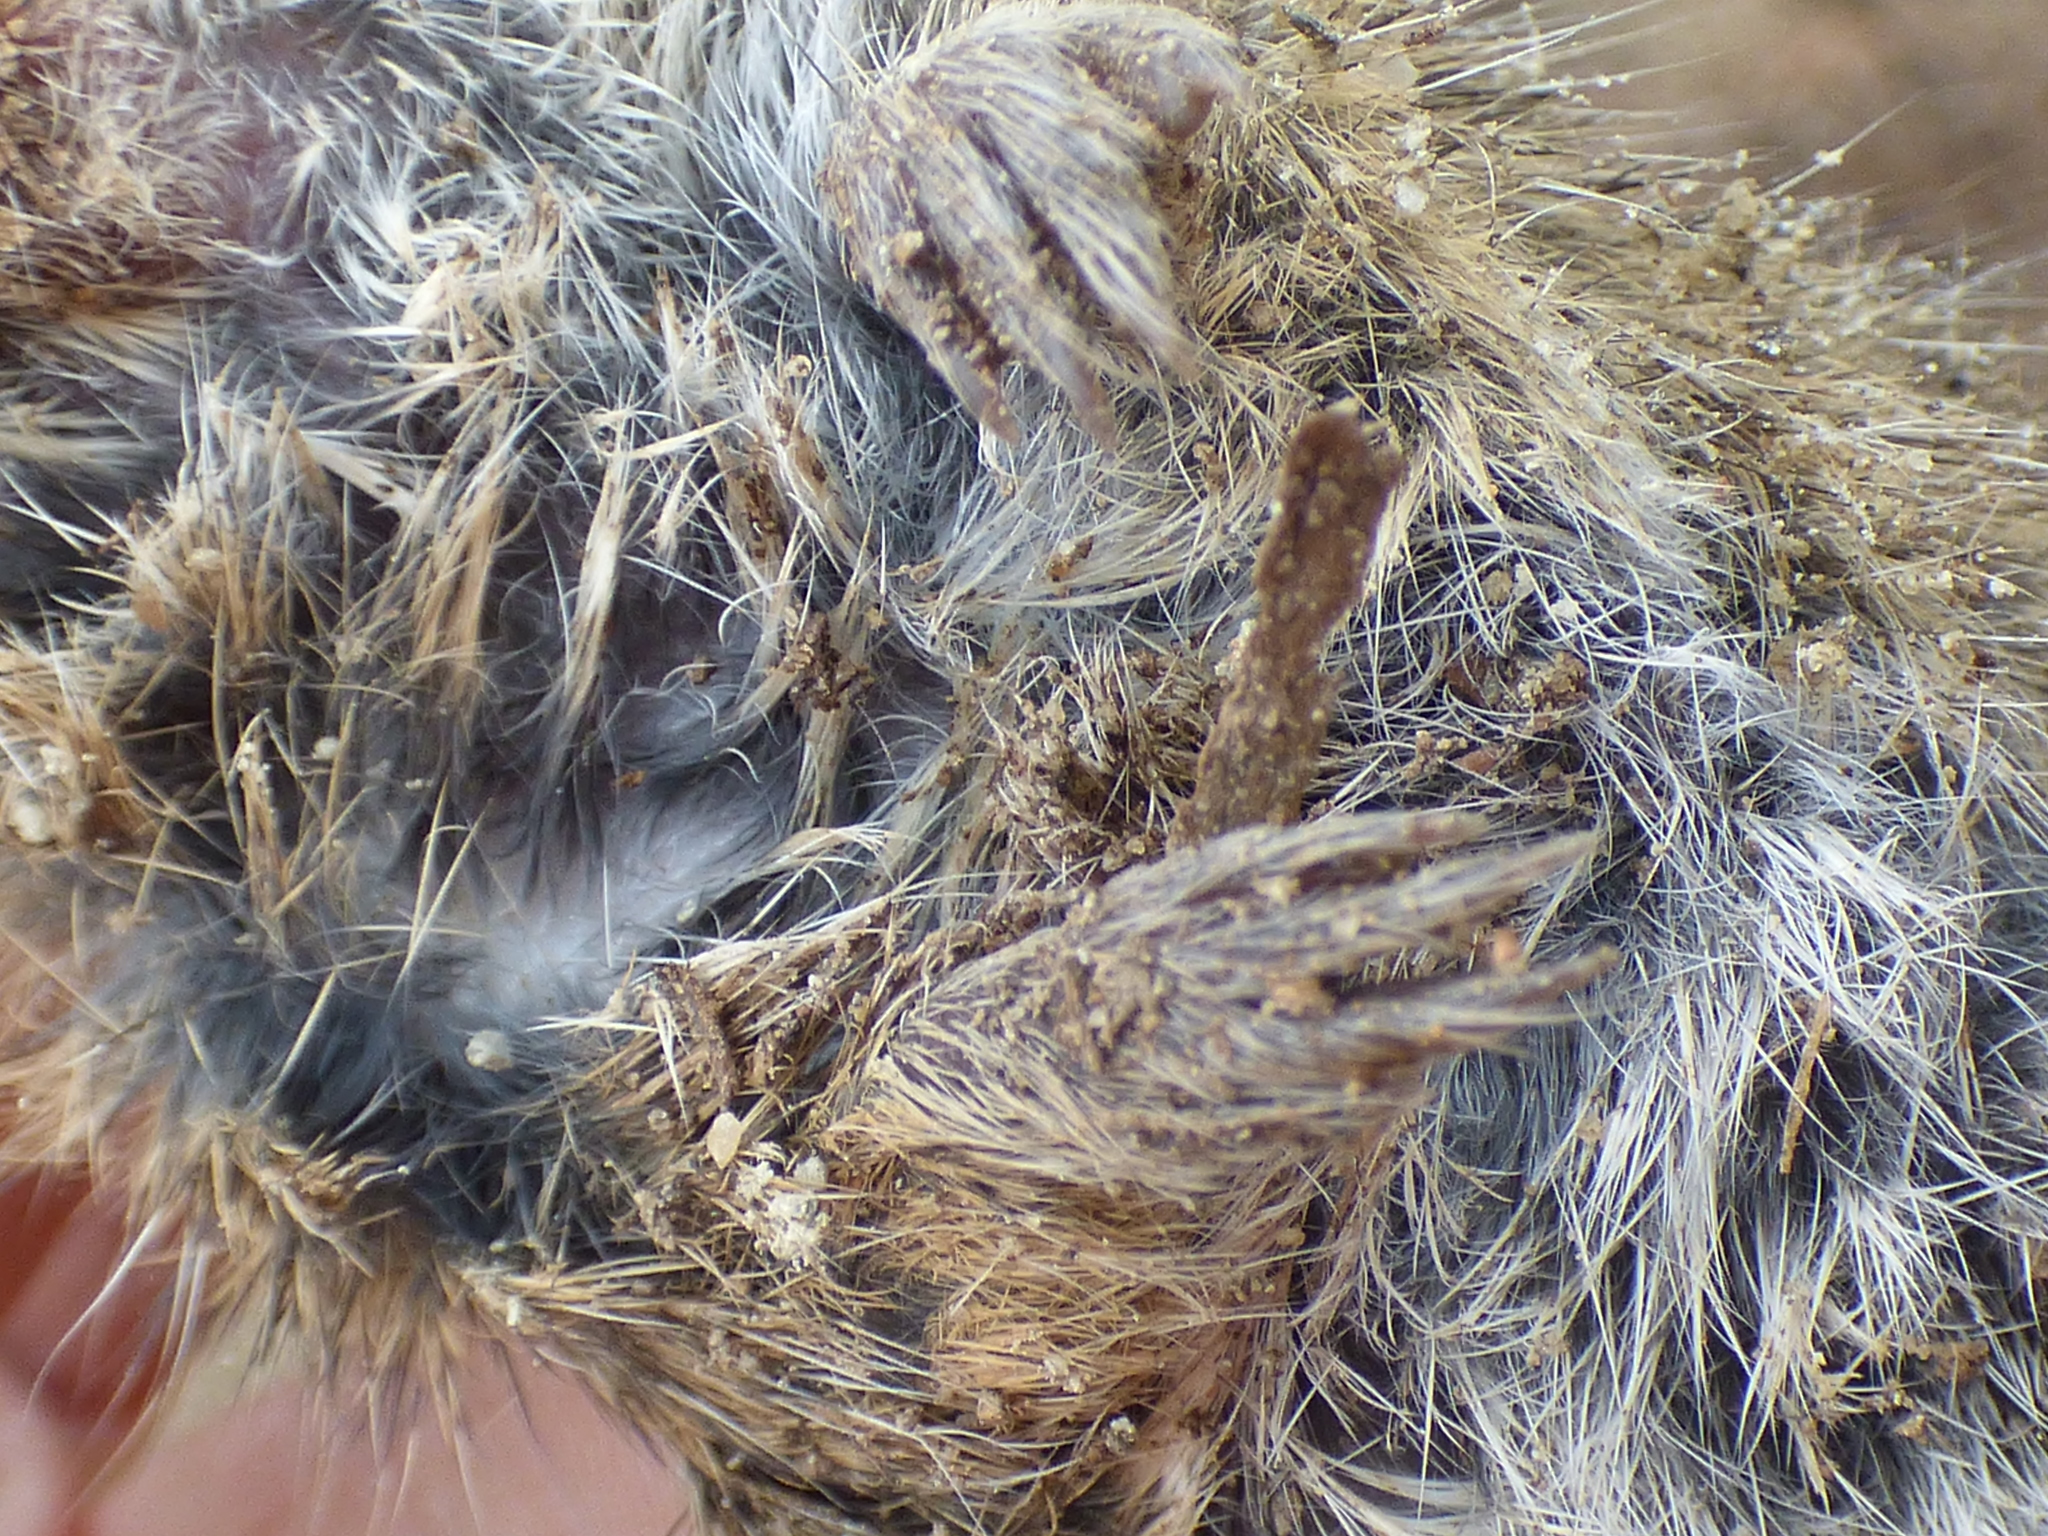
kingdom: Animalia
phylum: Chordata
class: Mammalia
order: Rodentia
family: Cricetidae
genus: Microtus
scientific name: Microtus pennsylvanicus
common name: Meadow vole
